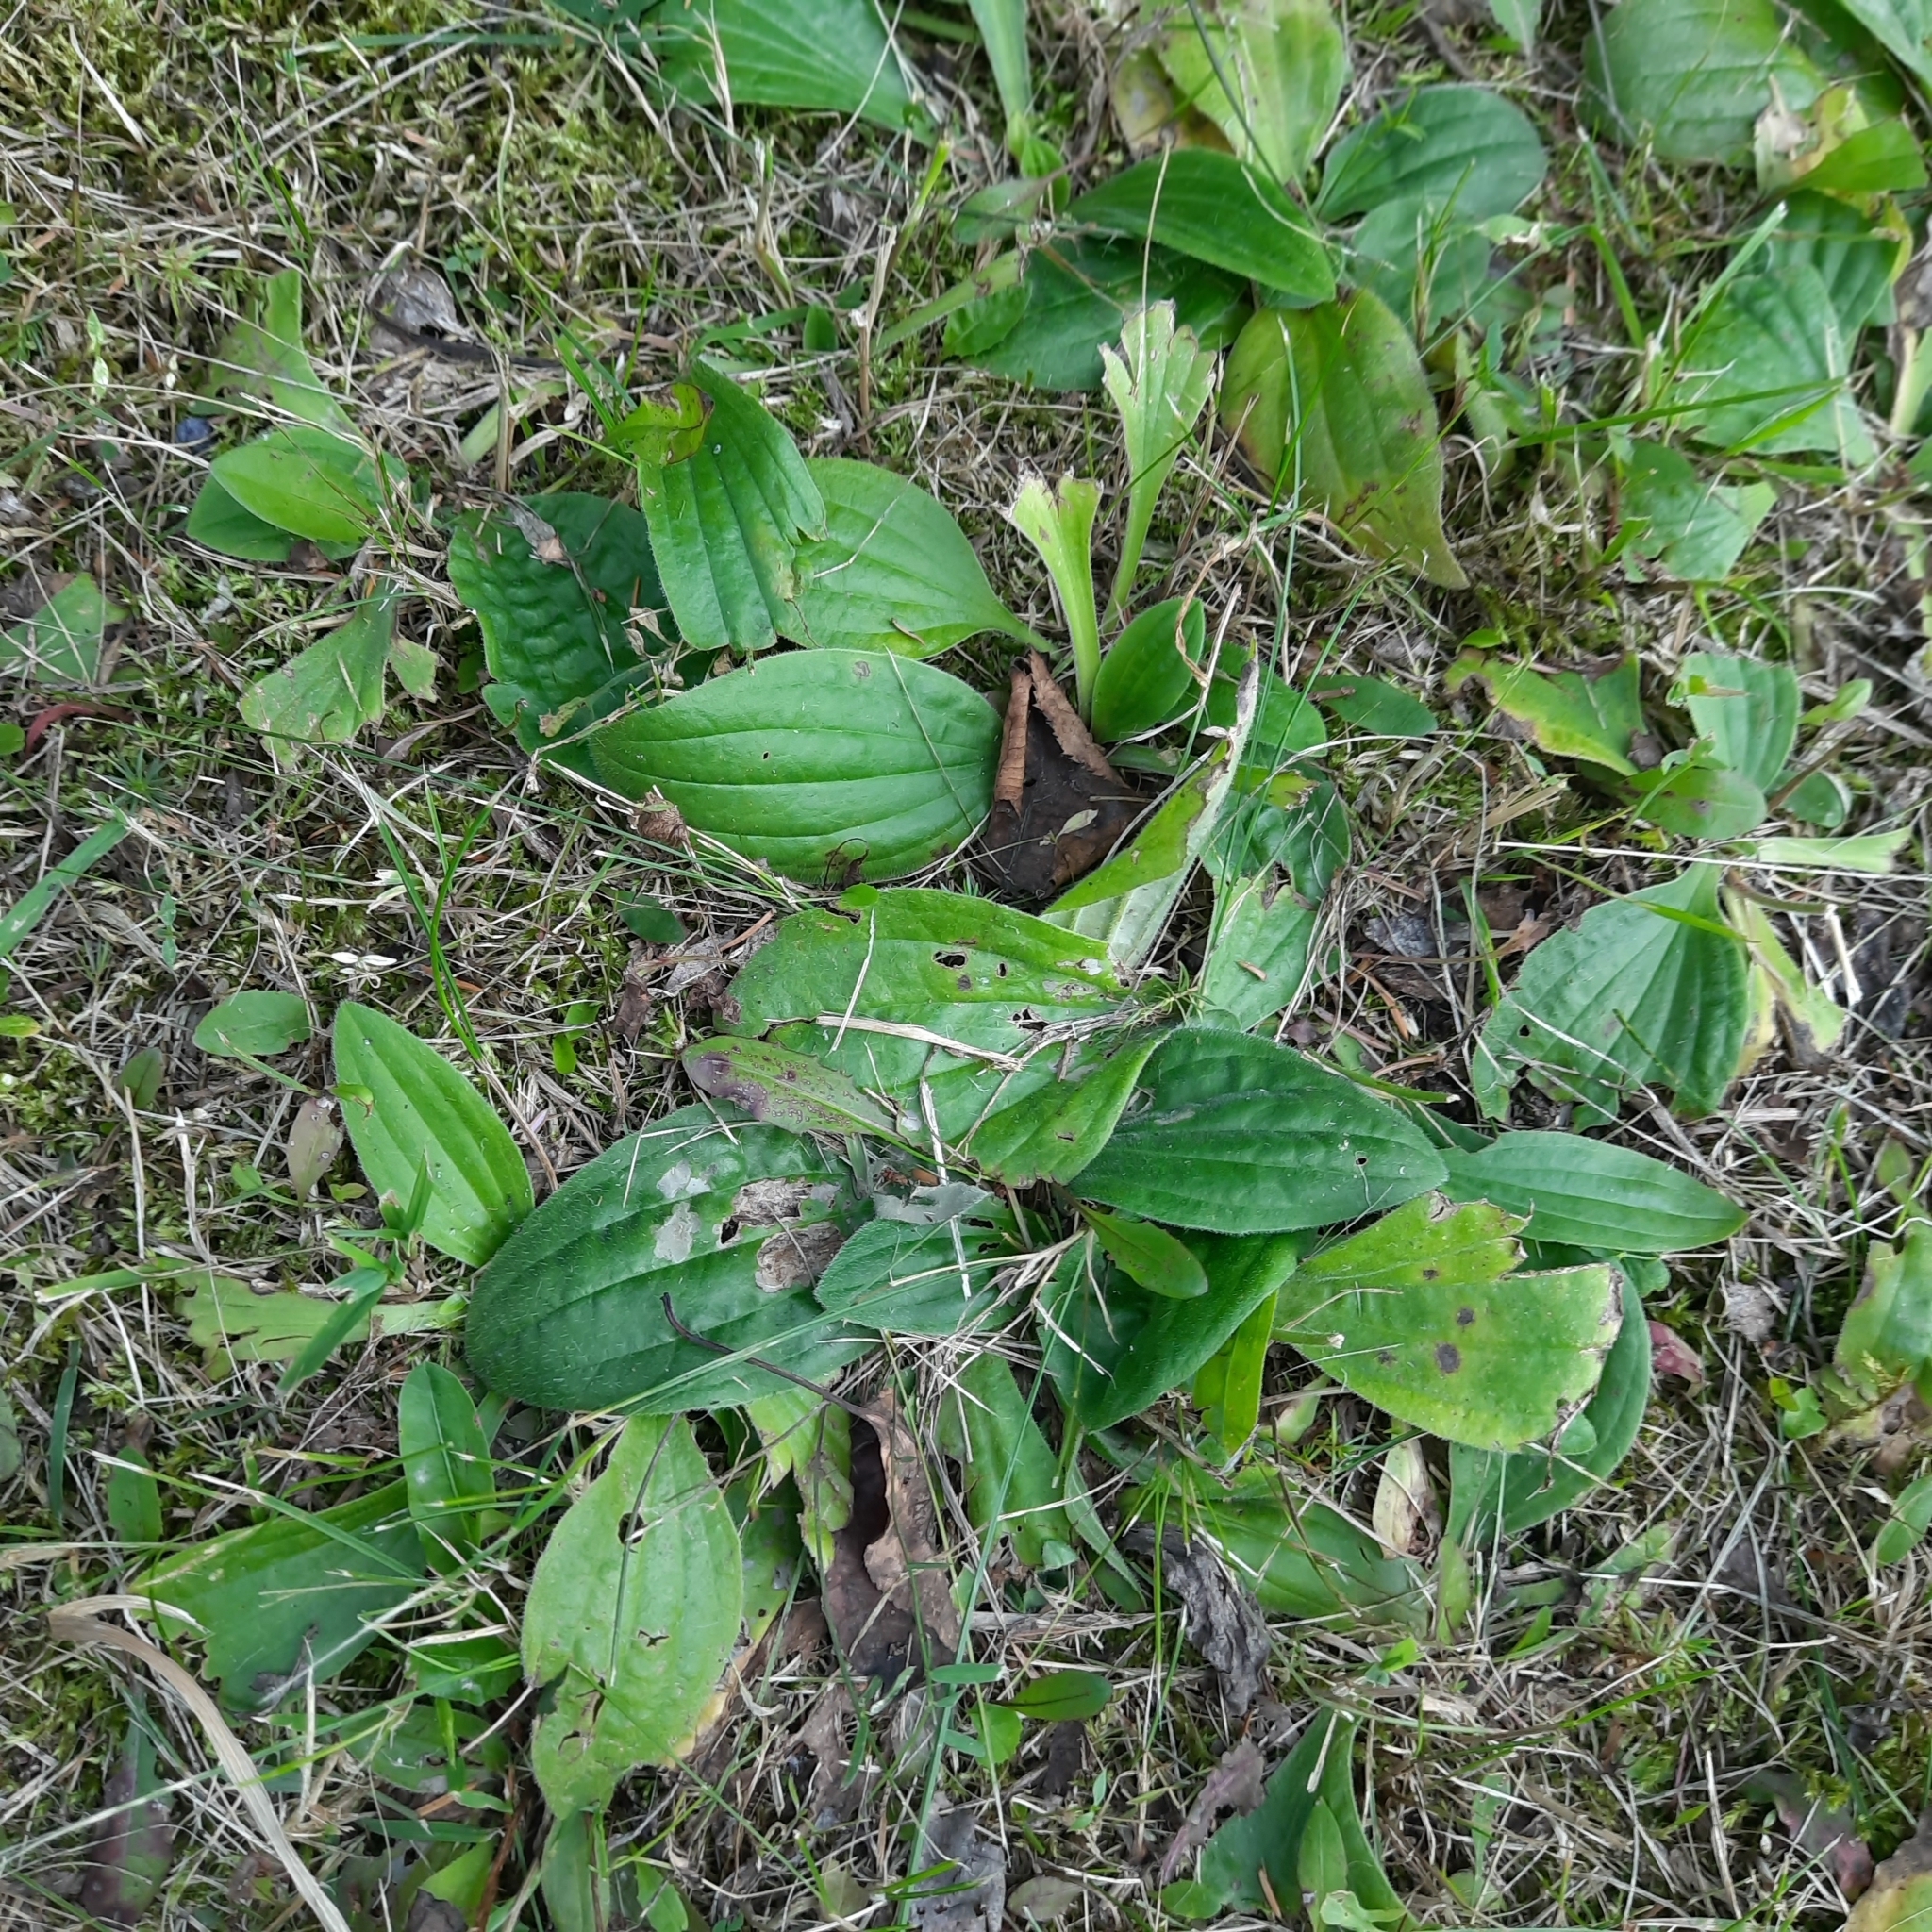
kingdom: Plantae
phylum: Tracheophyta
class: Magnoliopsida
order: Lamiales
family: Plantaginaceae
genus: Plantago
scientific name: Plantago media
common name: Hoary plantain
